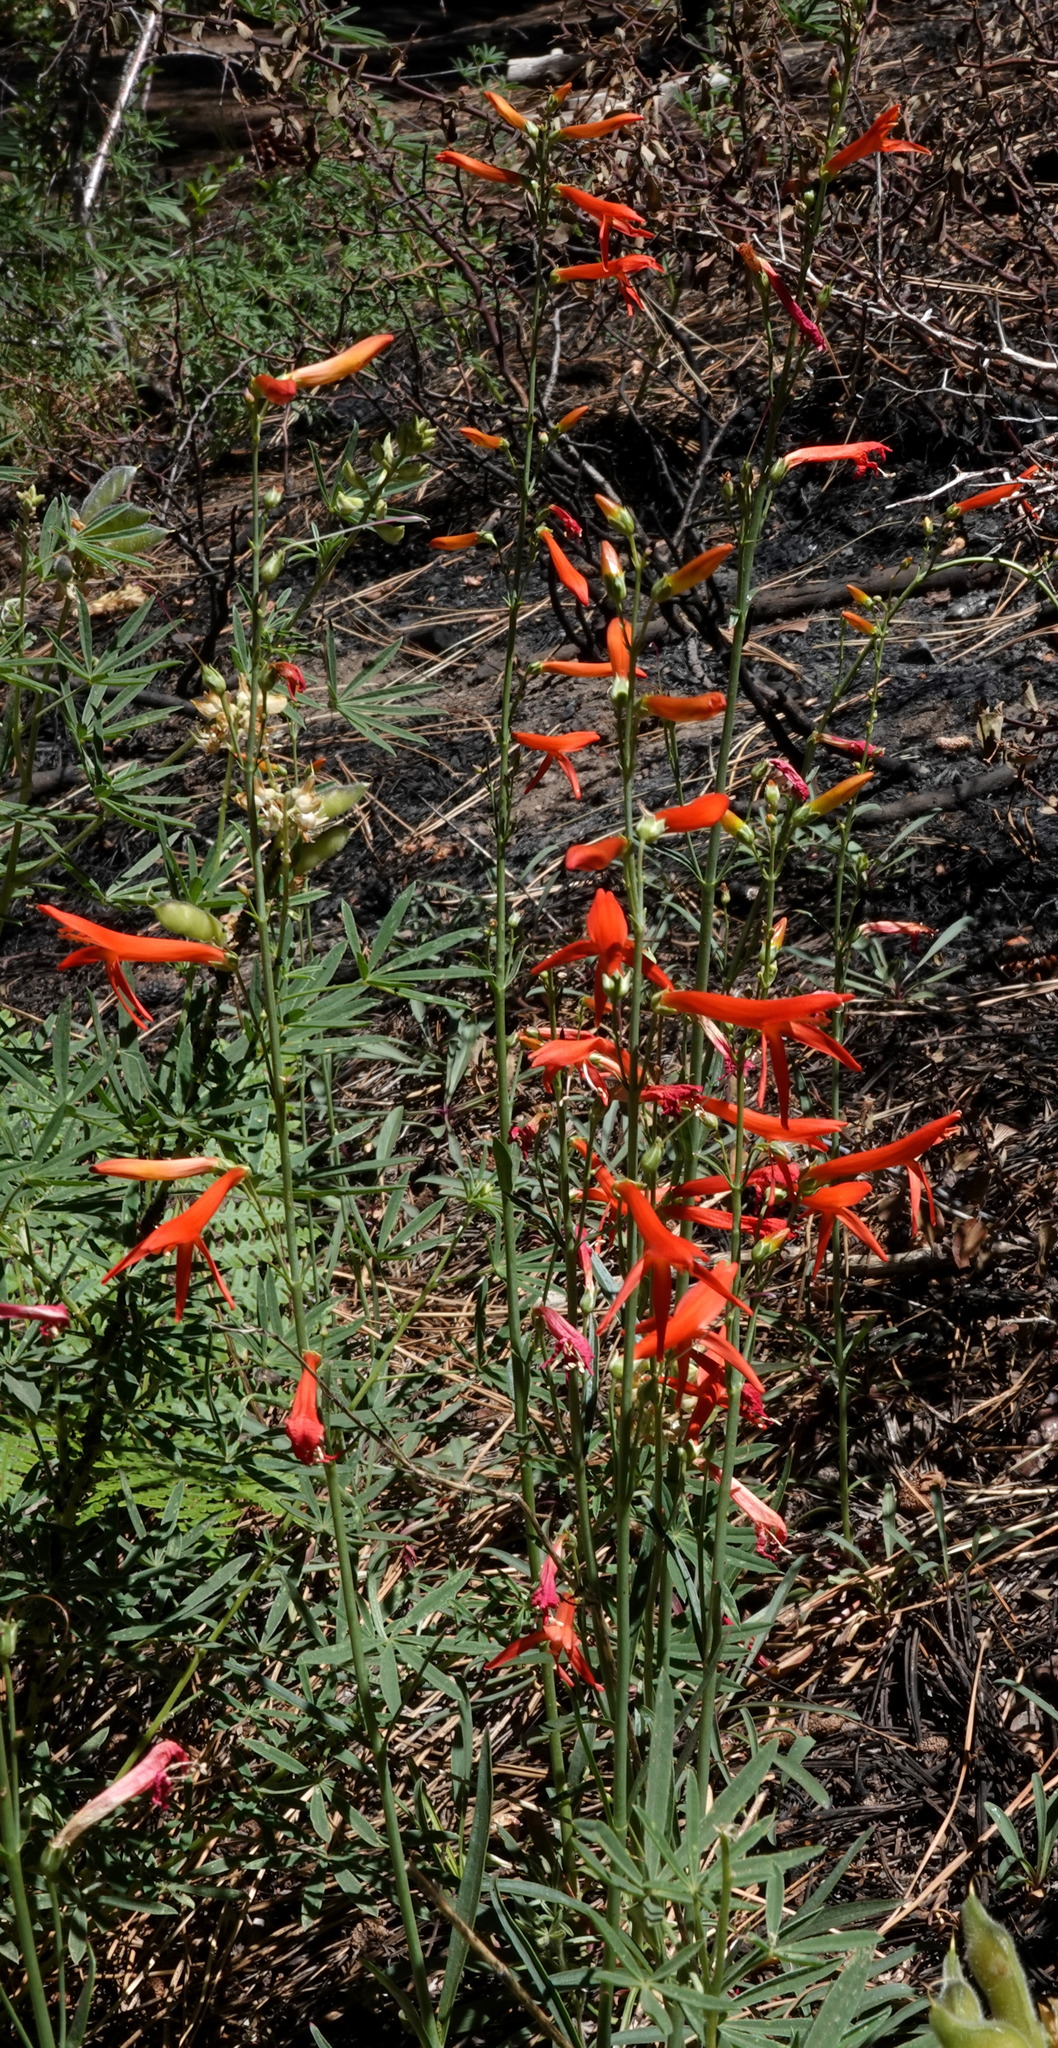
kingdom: Plantae
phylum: Tracheophyta
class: Magnoliopsida
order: Lamiales
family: Plantaginaceae
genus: Penstemon
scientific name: Penstemon labrosus
